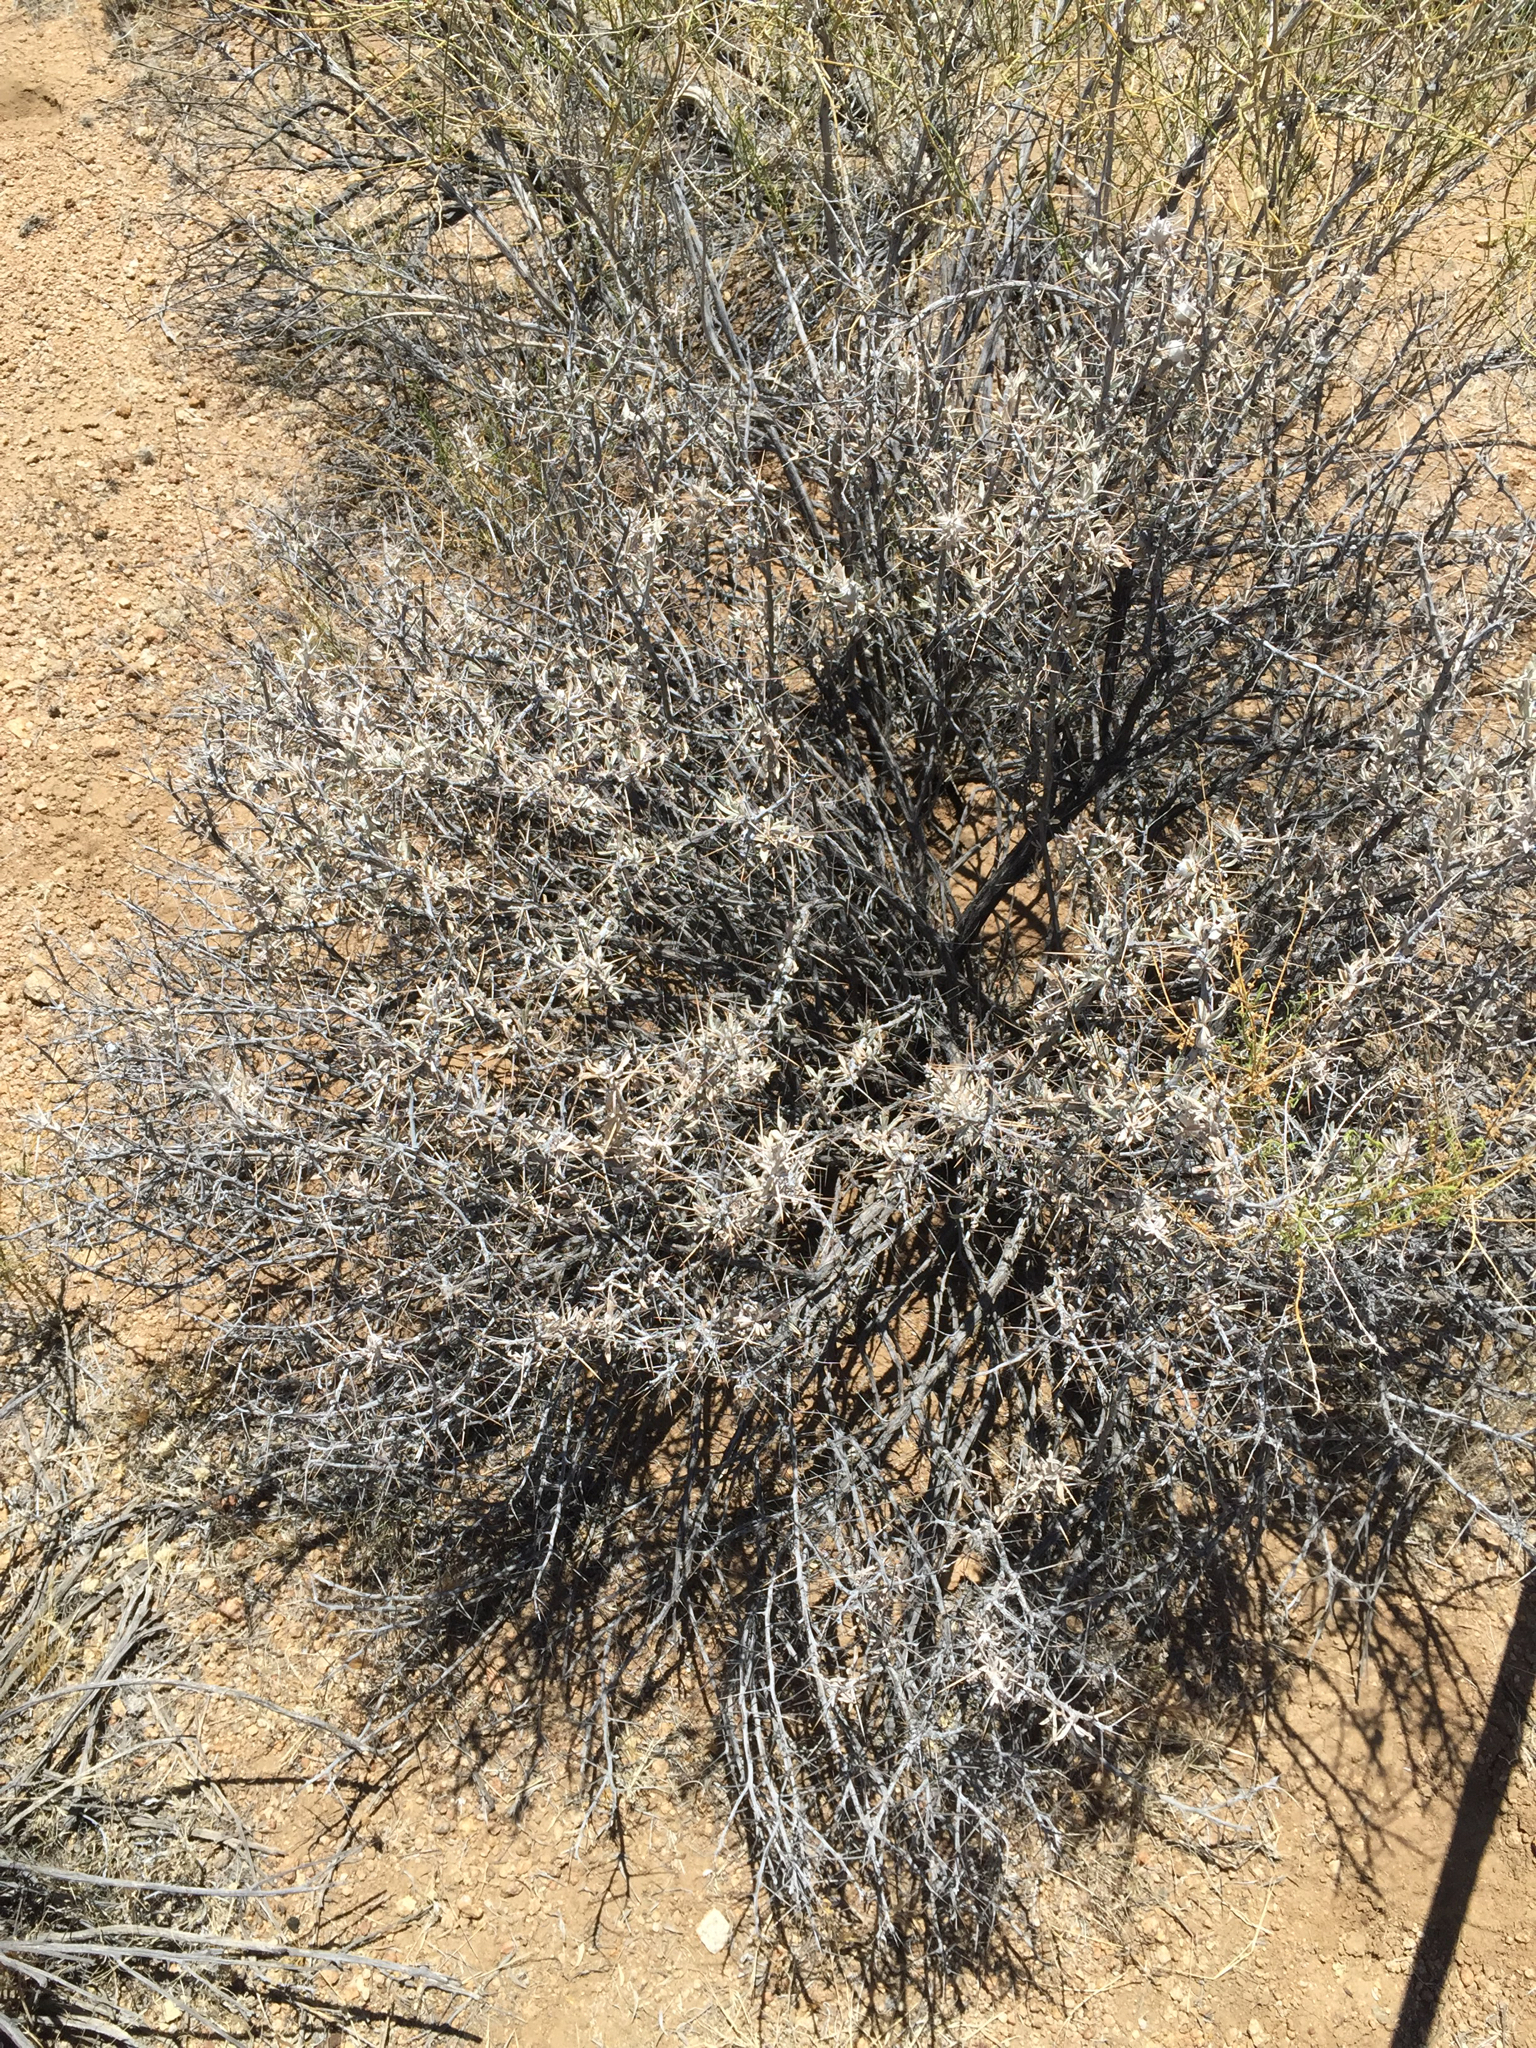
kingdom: Plantae
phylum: Tracheophyta
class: Magnoliopsida
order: Asterales
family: Asteraceae
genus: Tetradymia
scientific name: Tetradymia stenolepis
